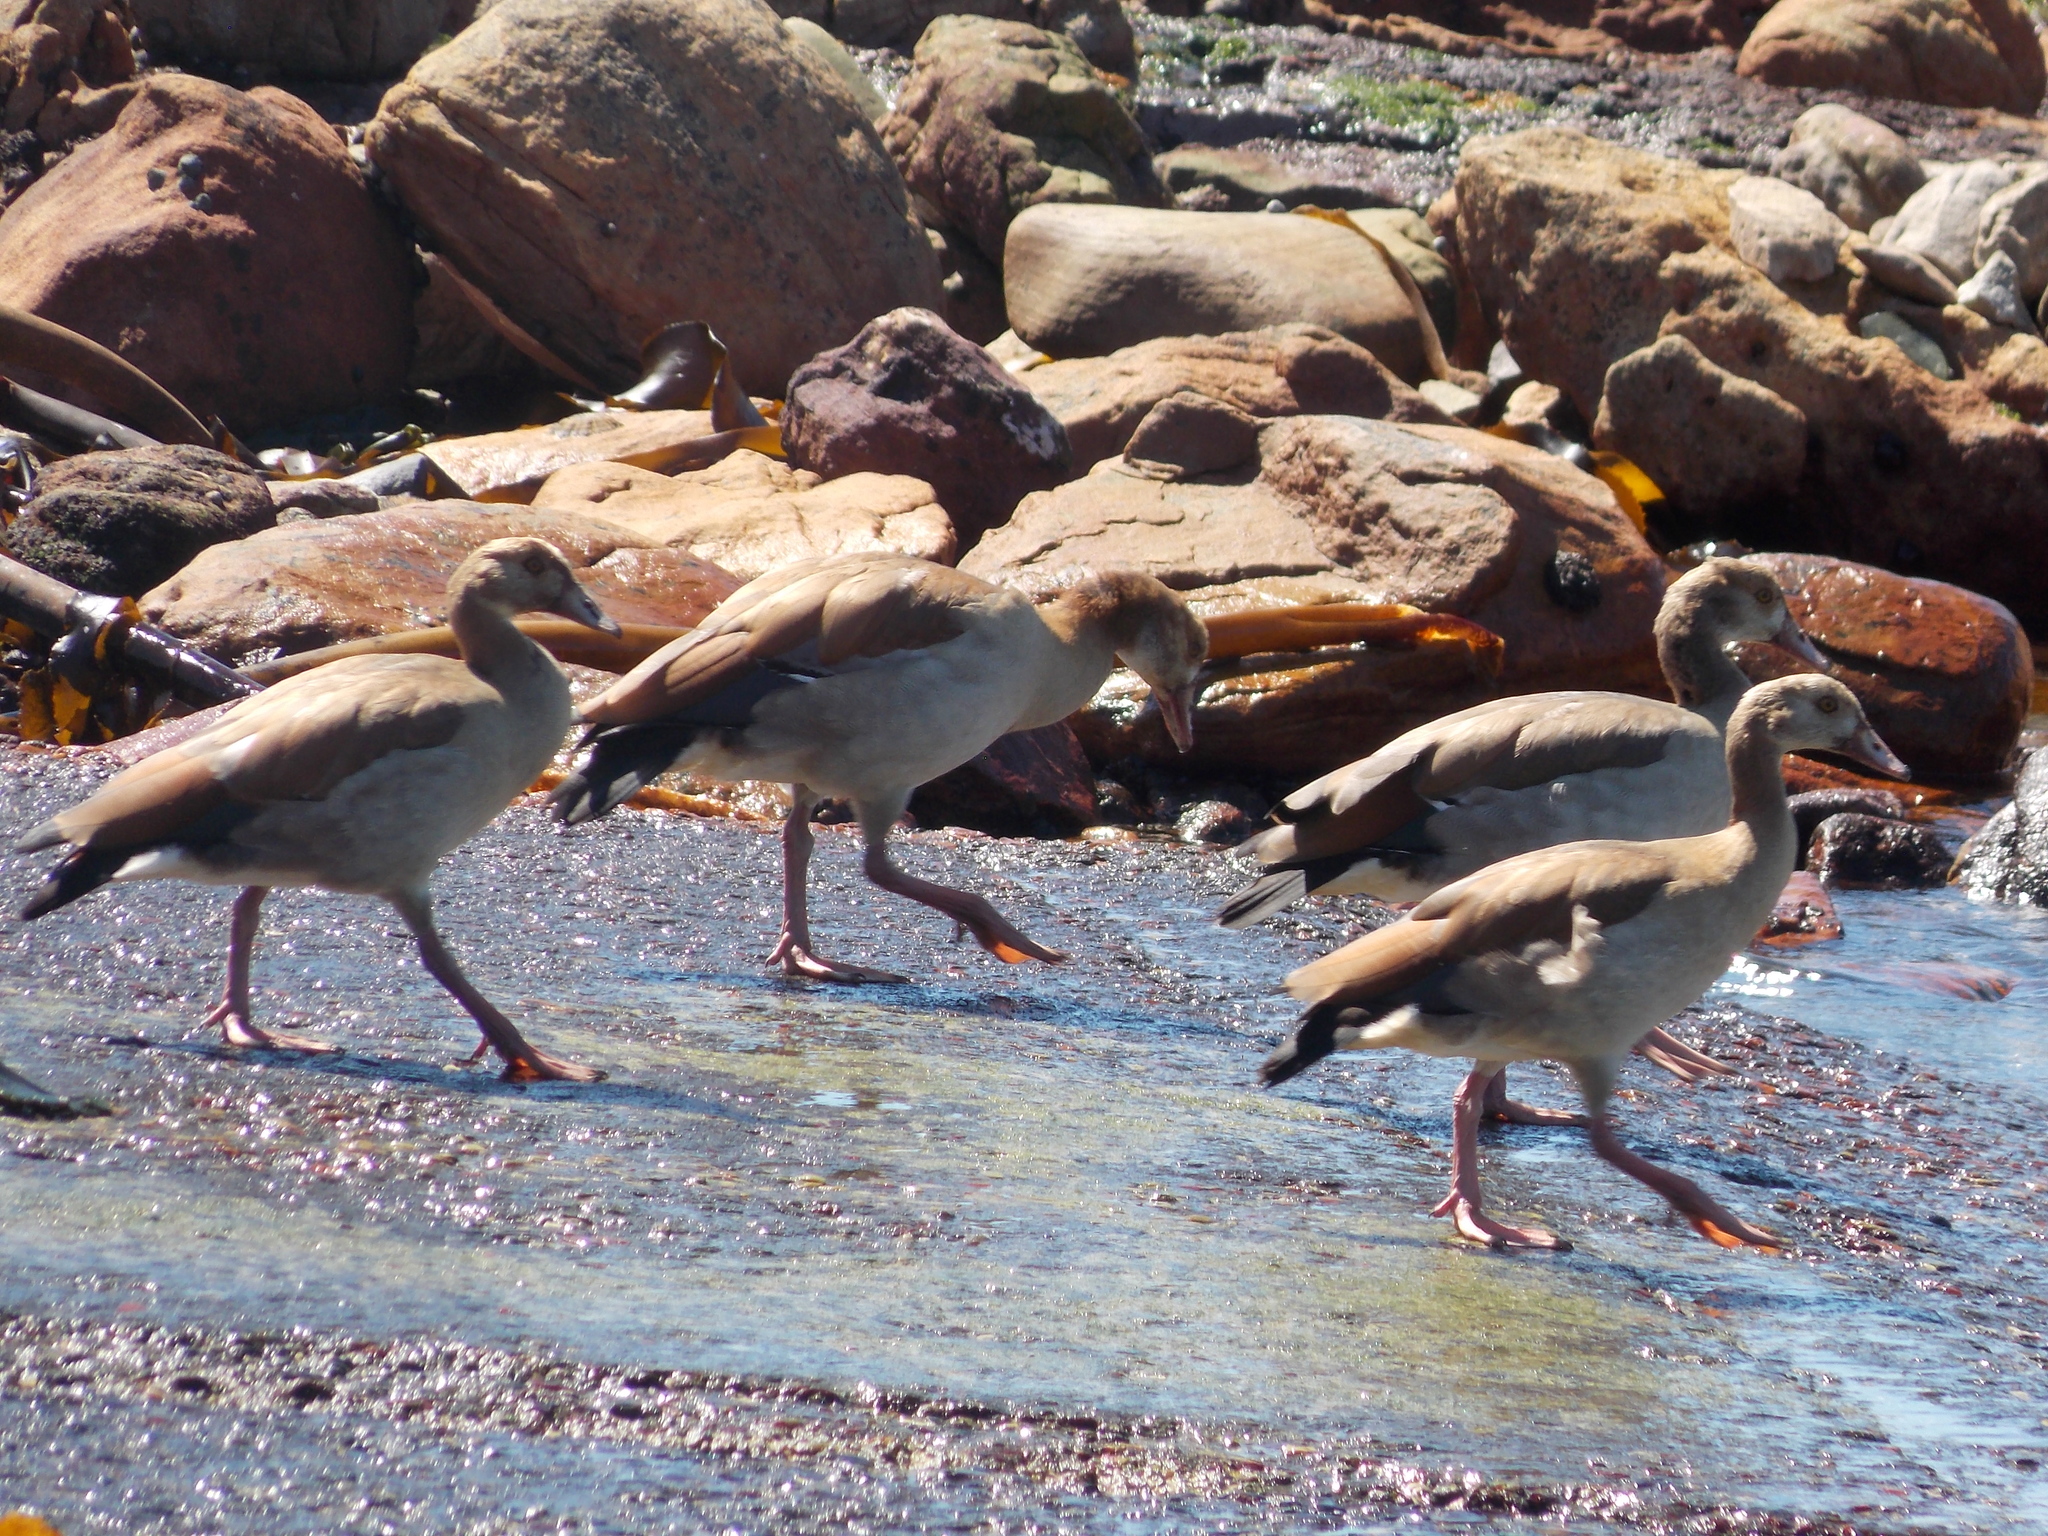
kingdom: Animalia
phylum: Chordata
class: Aves
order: Anseriformes
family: Anatidae
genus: Alopochen
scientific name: Alopochen aegyptiaca
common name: Egyptian goose
